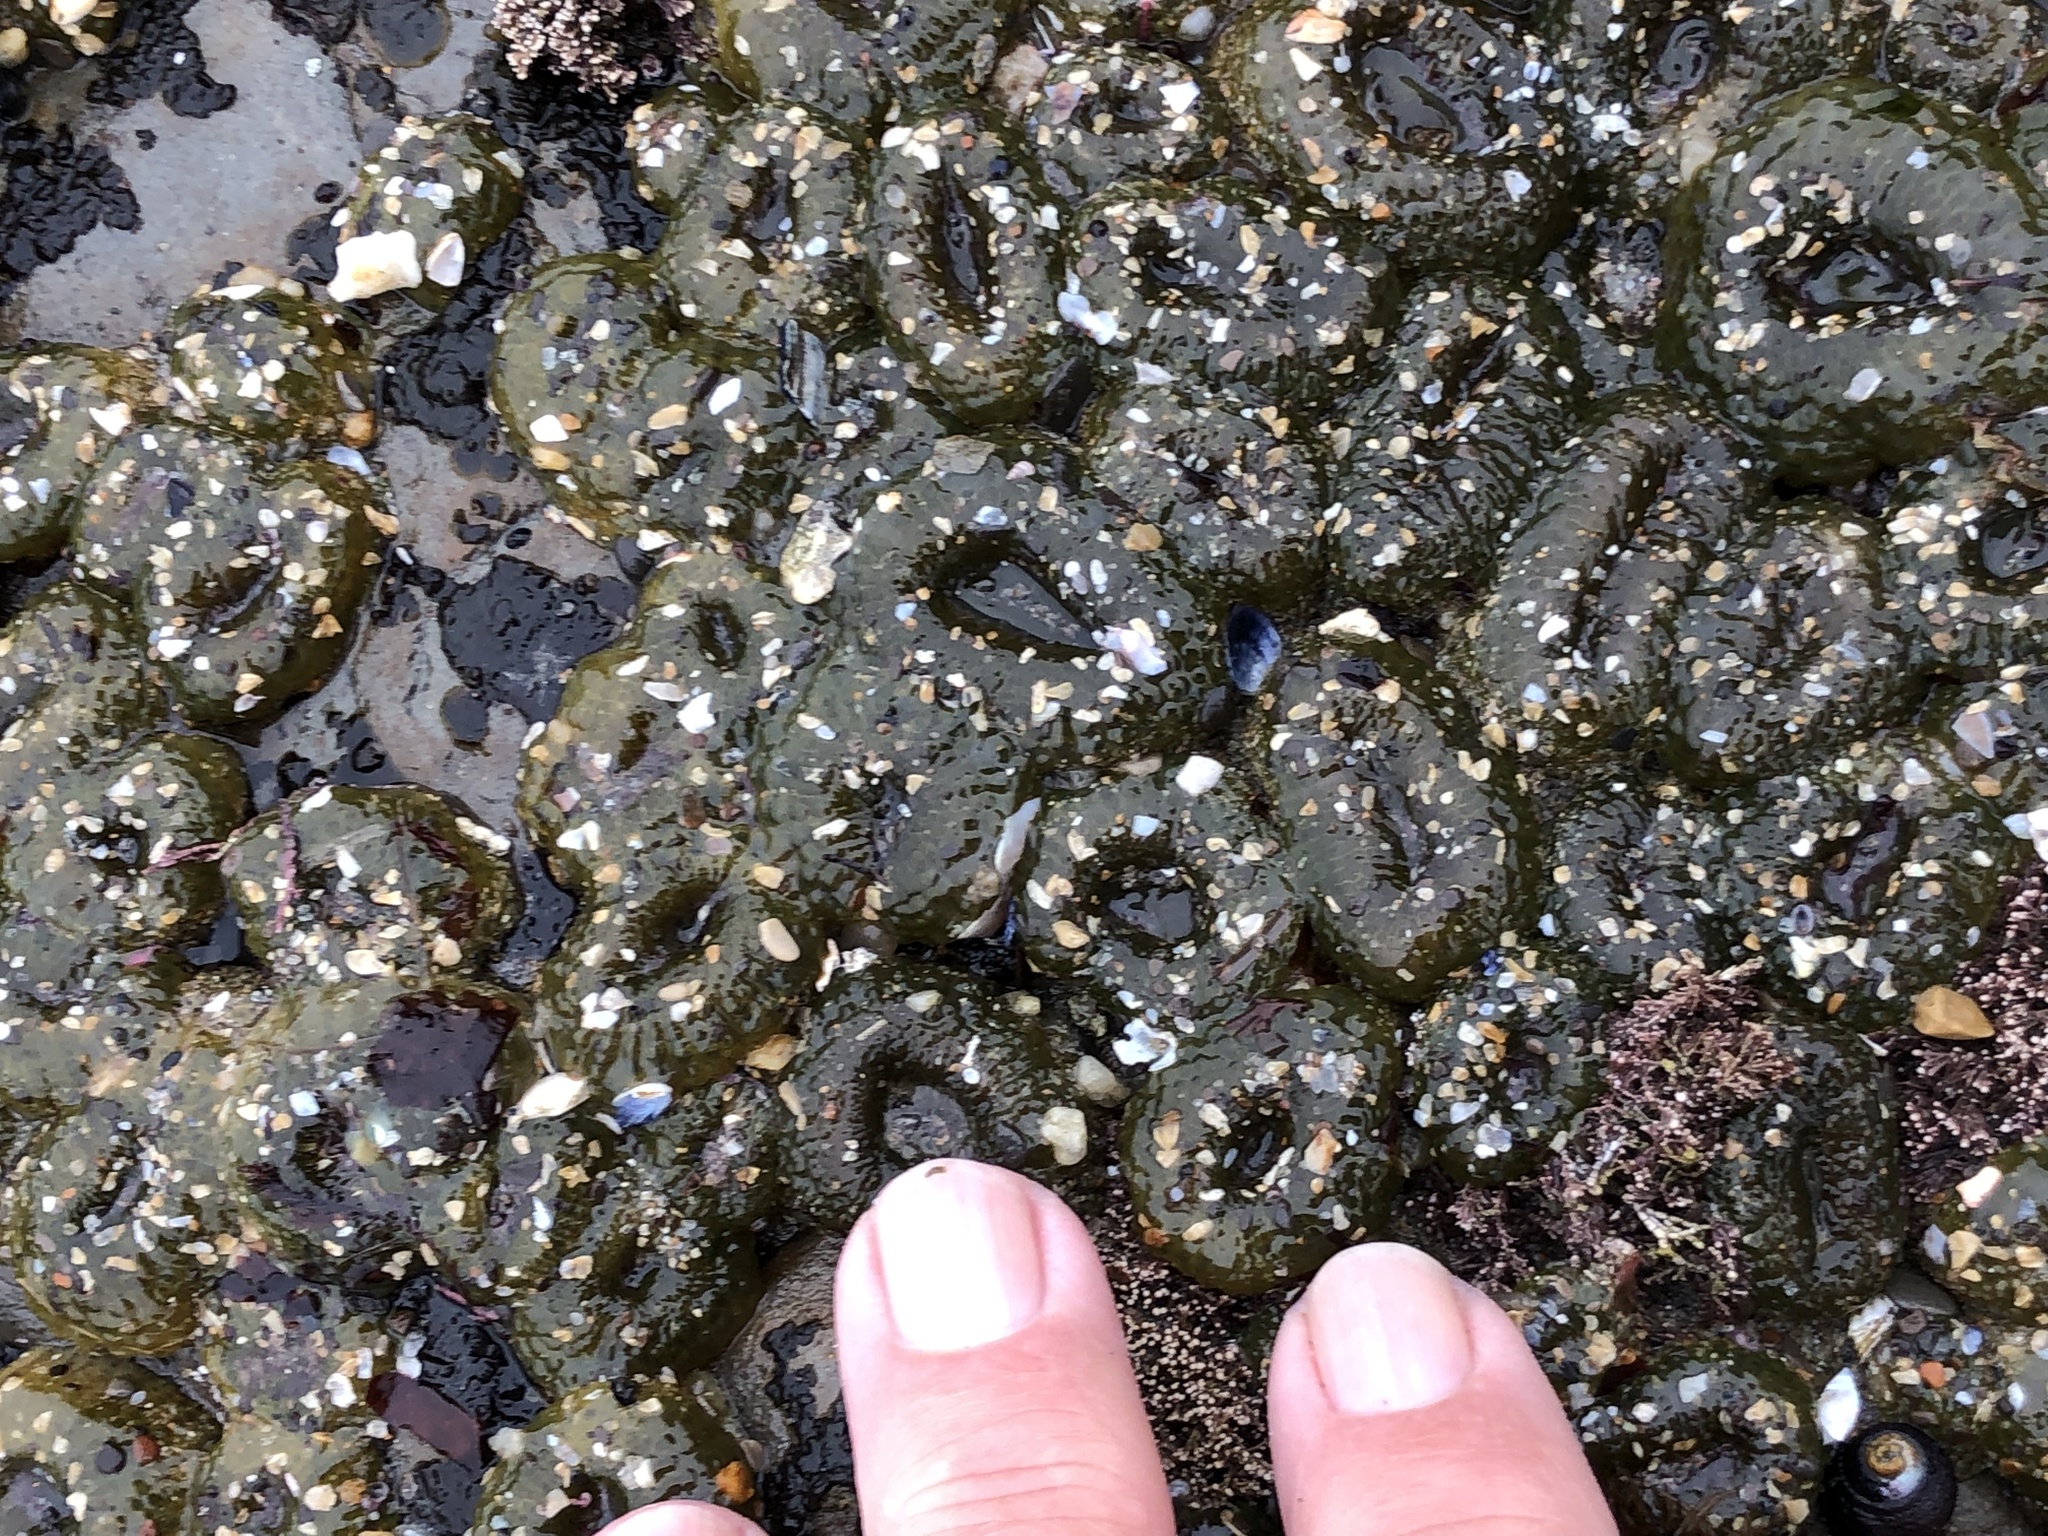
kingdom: Animalia
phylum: Cnidaria
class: Anthozoa
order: Actiniaria
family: Actiniidae
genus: Anthopleura
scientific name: Anthopleura elegantissima
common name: Clonal anemone
